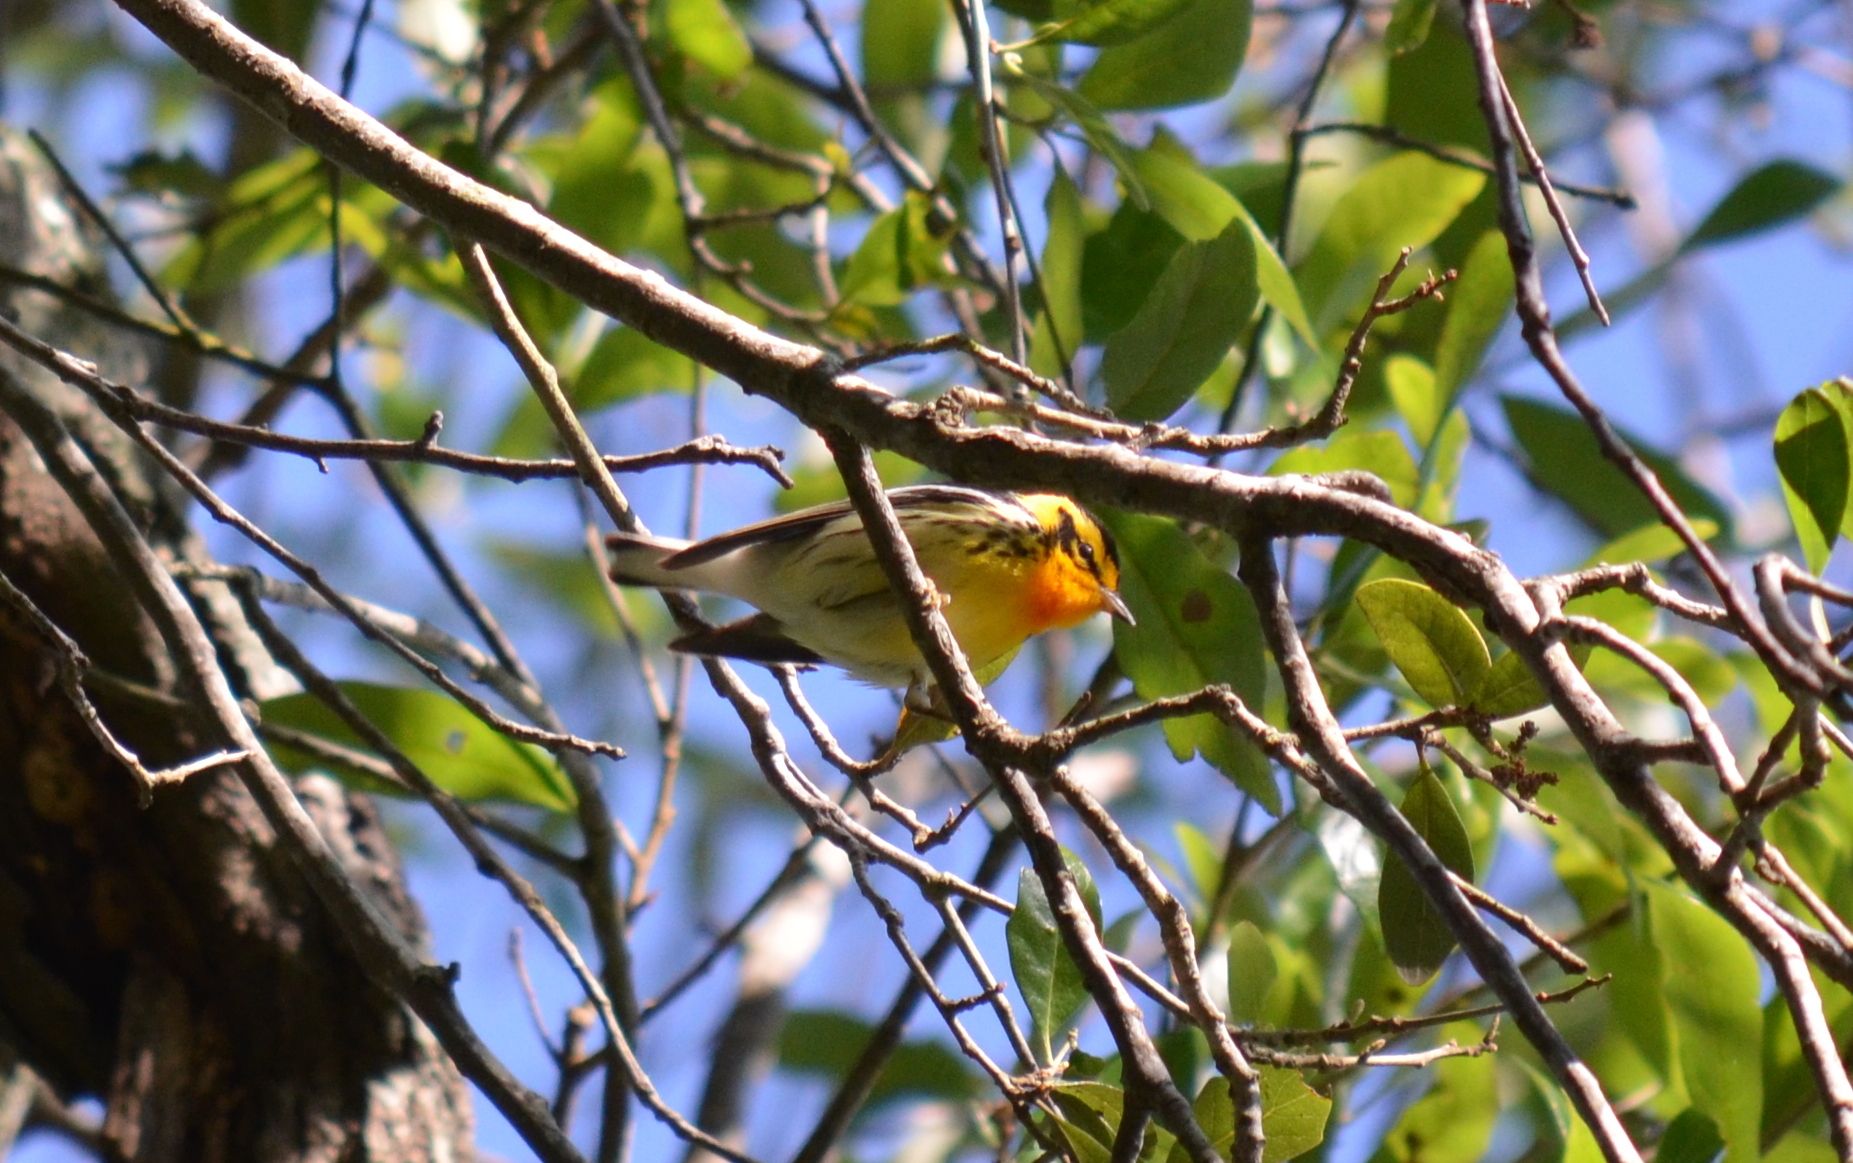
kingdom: Animalia
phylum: Chordata
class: Aves
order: Passeriformes
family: Parulidae
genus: Setophaga
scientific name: Setophaga fusca
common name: Blackburnian warbler
